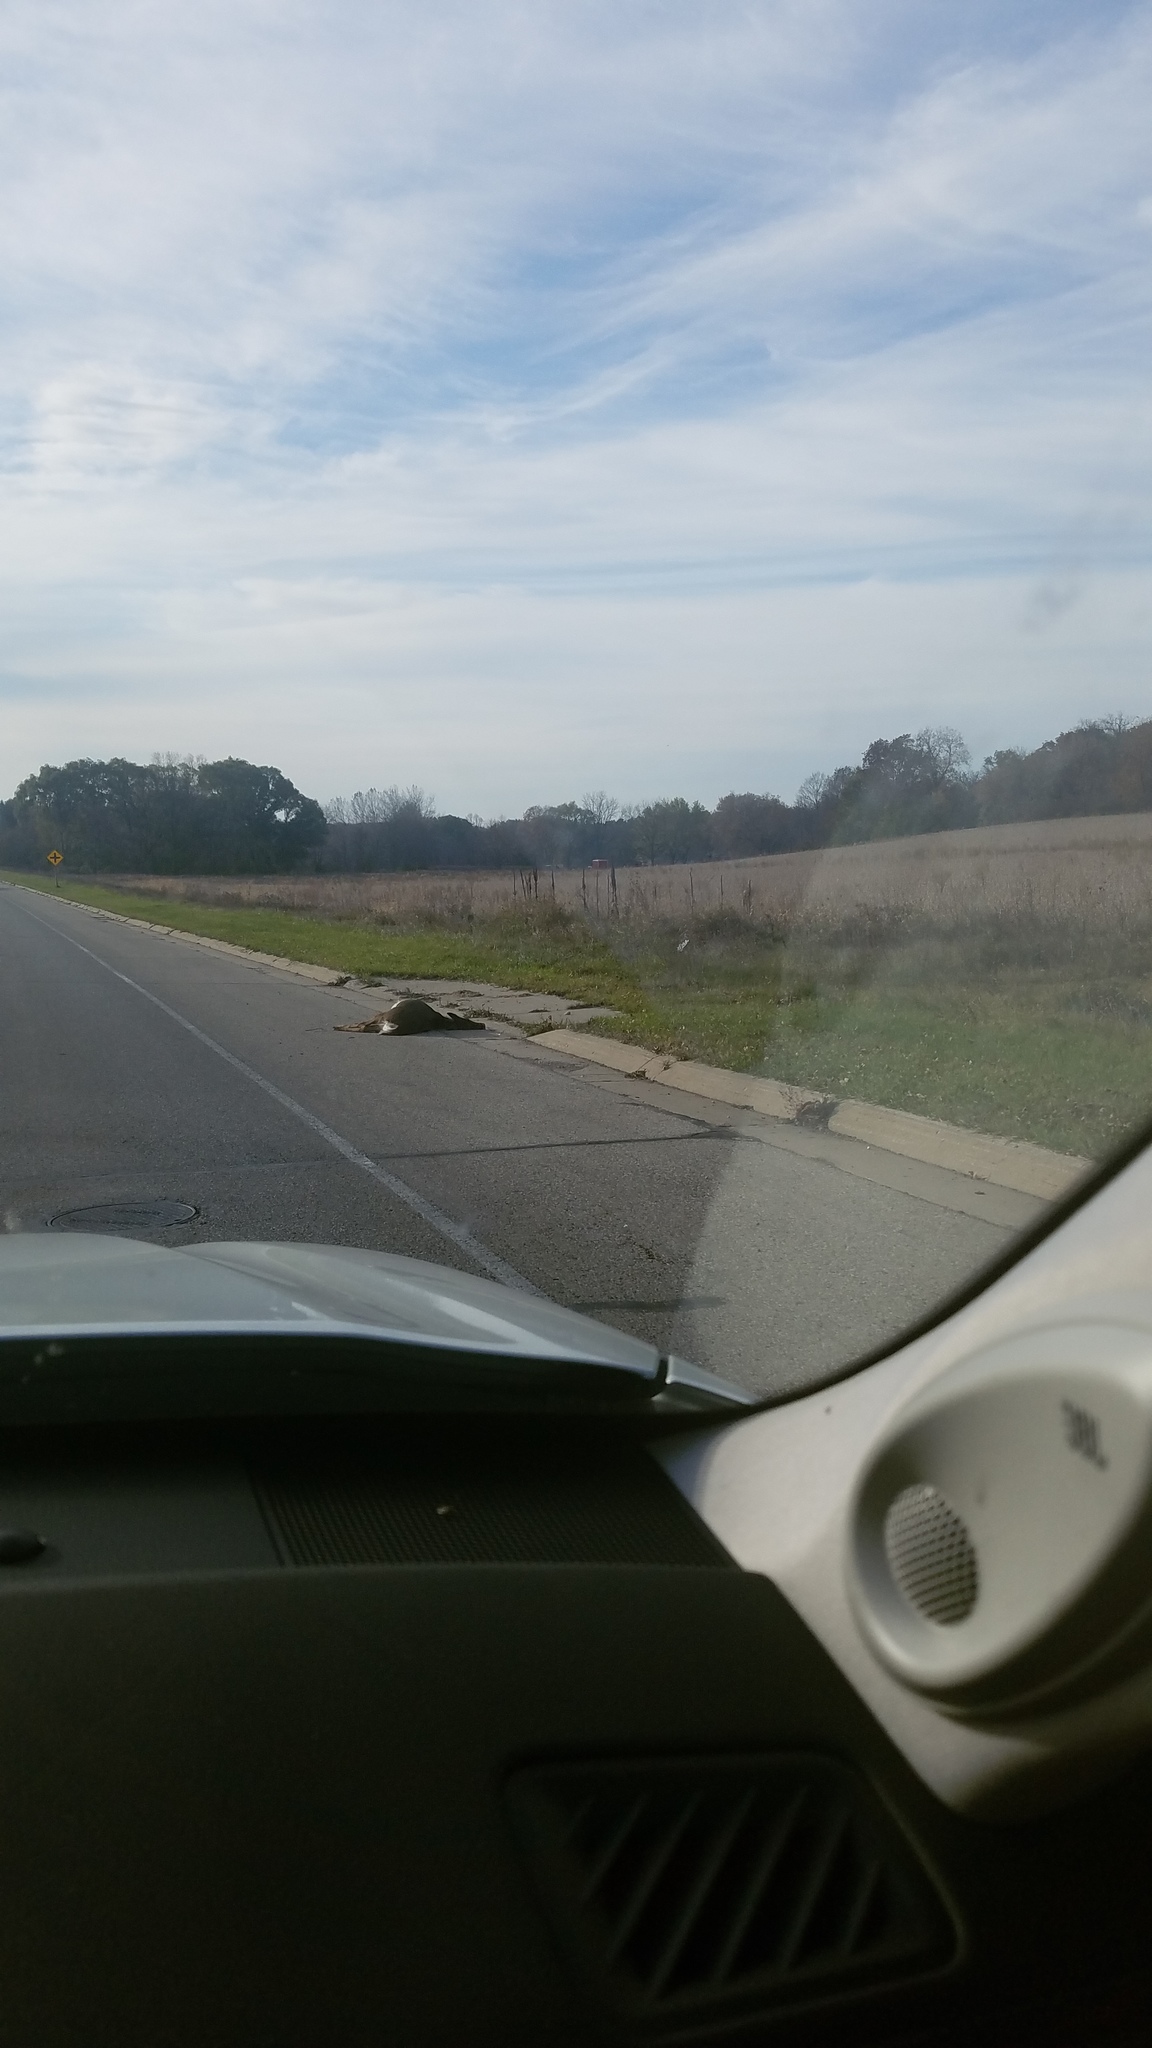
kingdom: Animalia
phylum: Chordata
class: Mammalia
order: Artiodactyla
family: Cervidae
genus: Odocoileus
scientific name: Odocoileus virginianus
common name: White-tailed deer
